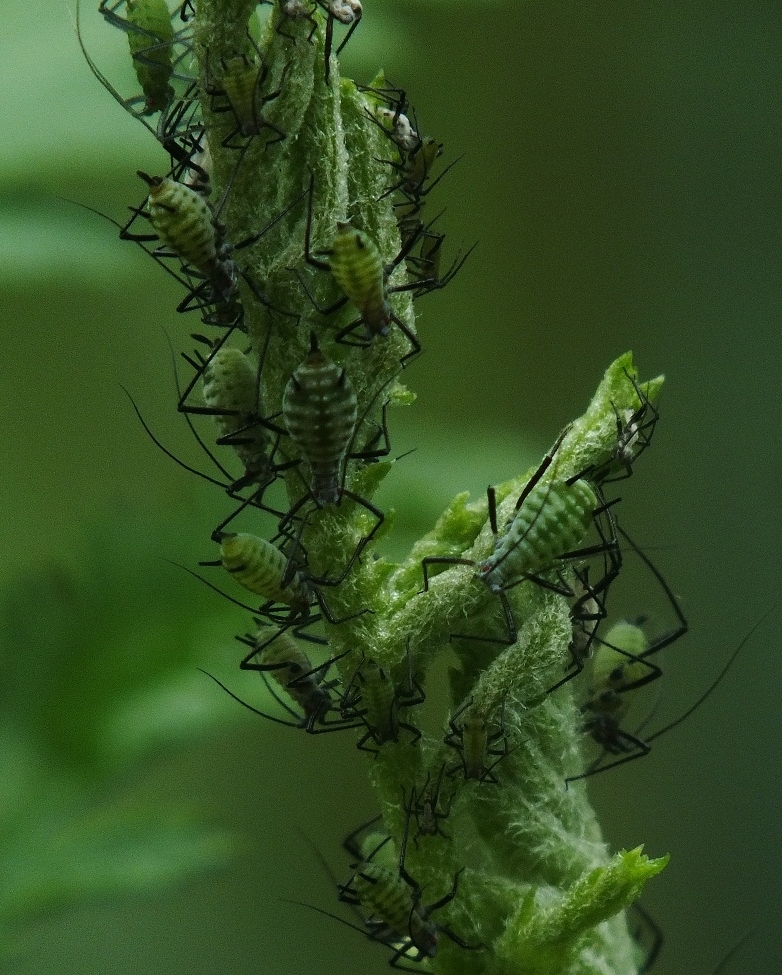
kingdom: Animalia
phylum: Arthropoda
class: Insecta
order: Hemiptera
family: Aphididae
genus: Macrosiphoniella
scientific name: Macrosiphoniella tanacetaria
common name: Aphid
